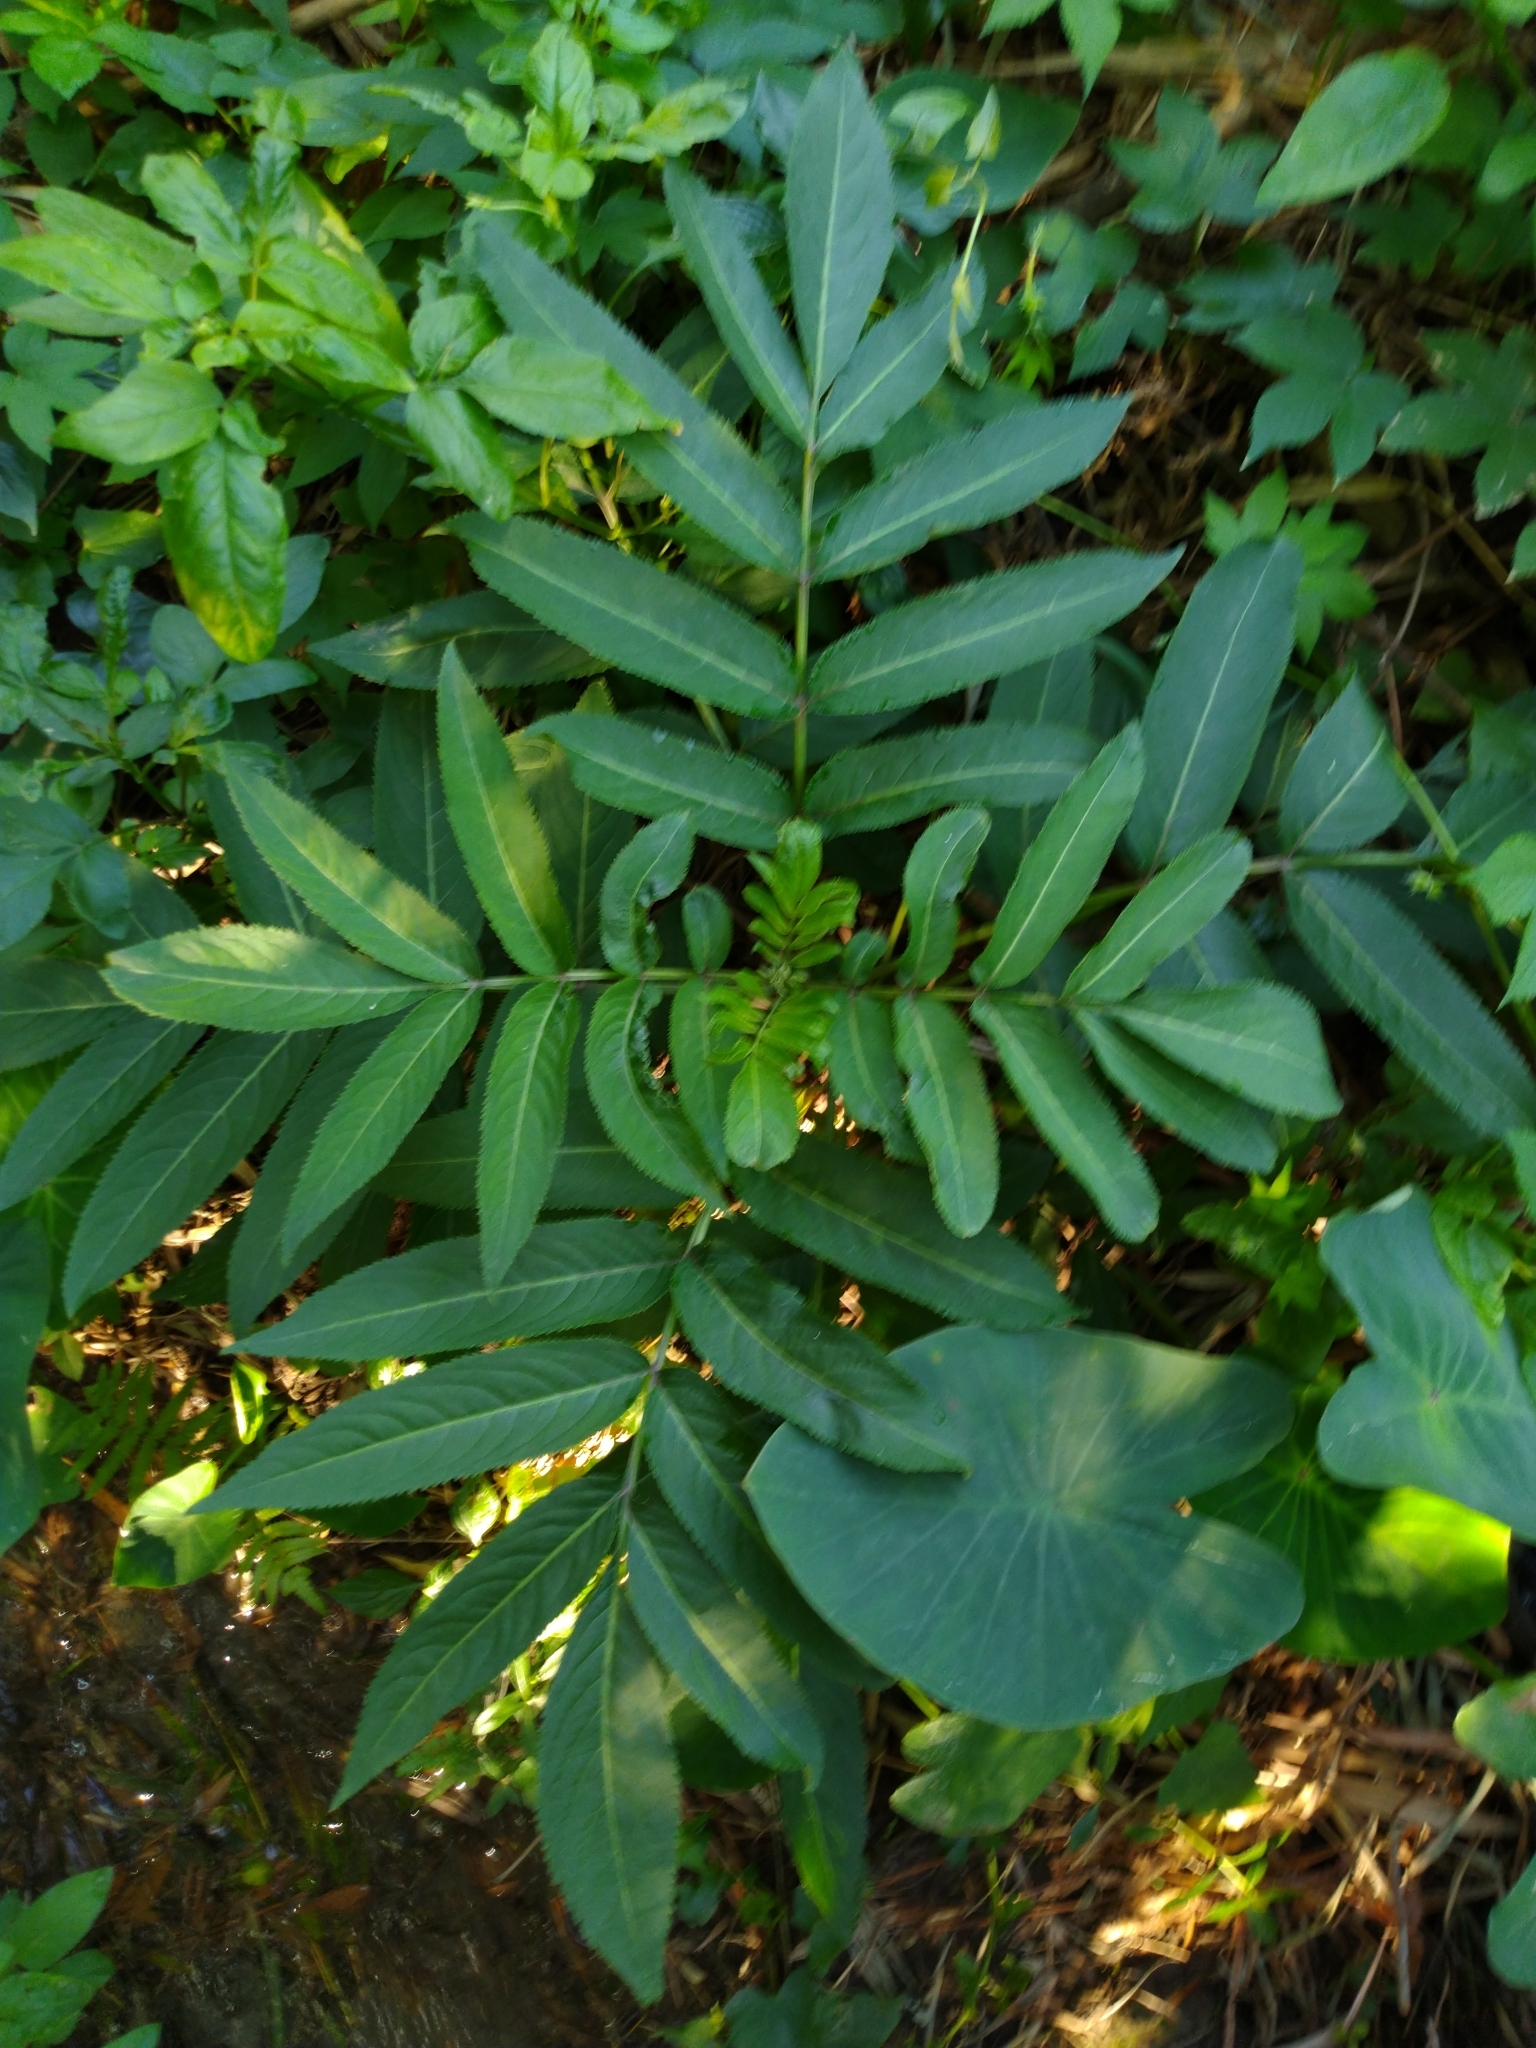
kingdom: Plantae
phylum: Tracheophyta
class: Magnoliopsida
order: Dipsacales
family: Viburnaceae
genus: Sambucus
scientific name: Sambucus javanica
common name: Chinese elder
